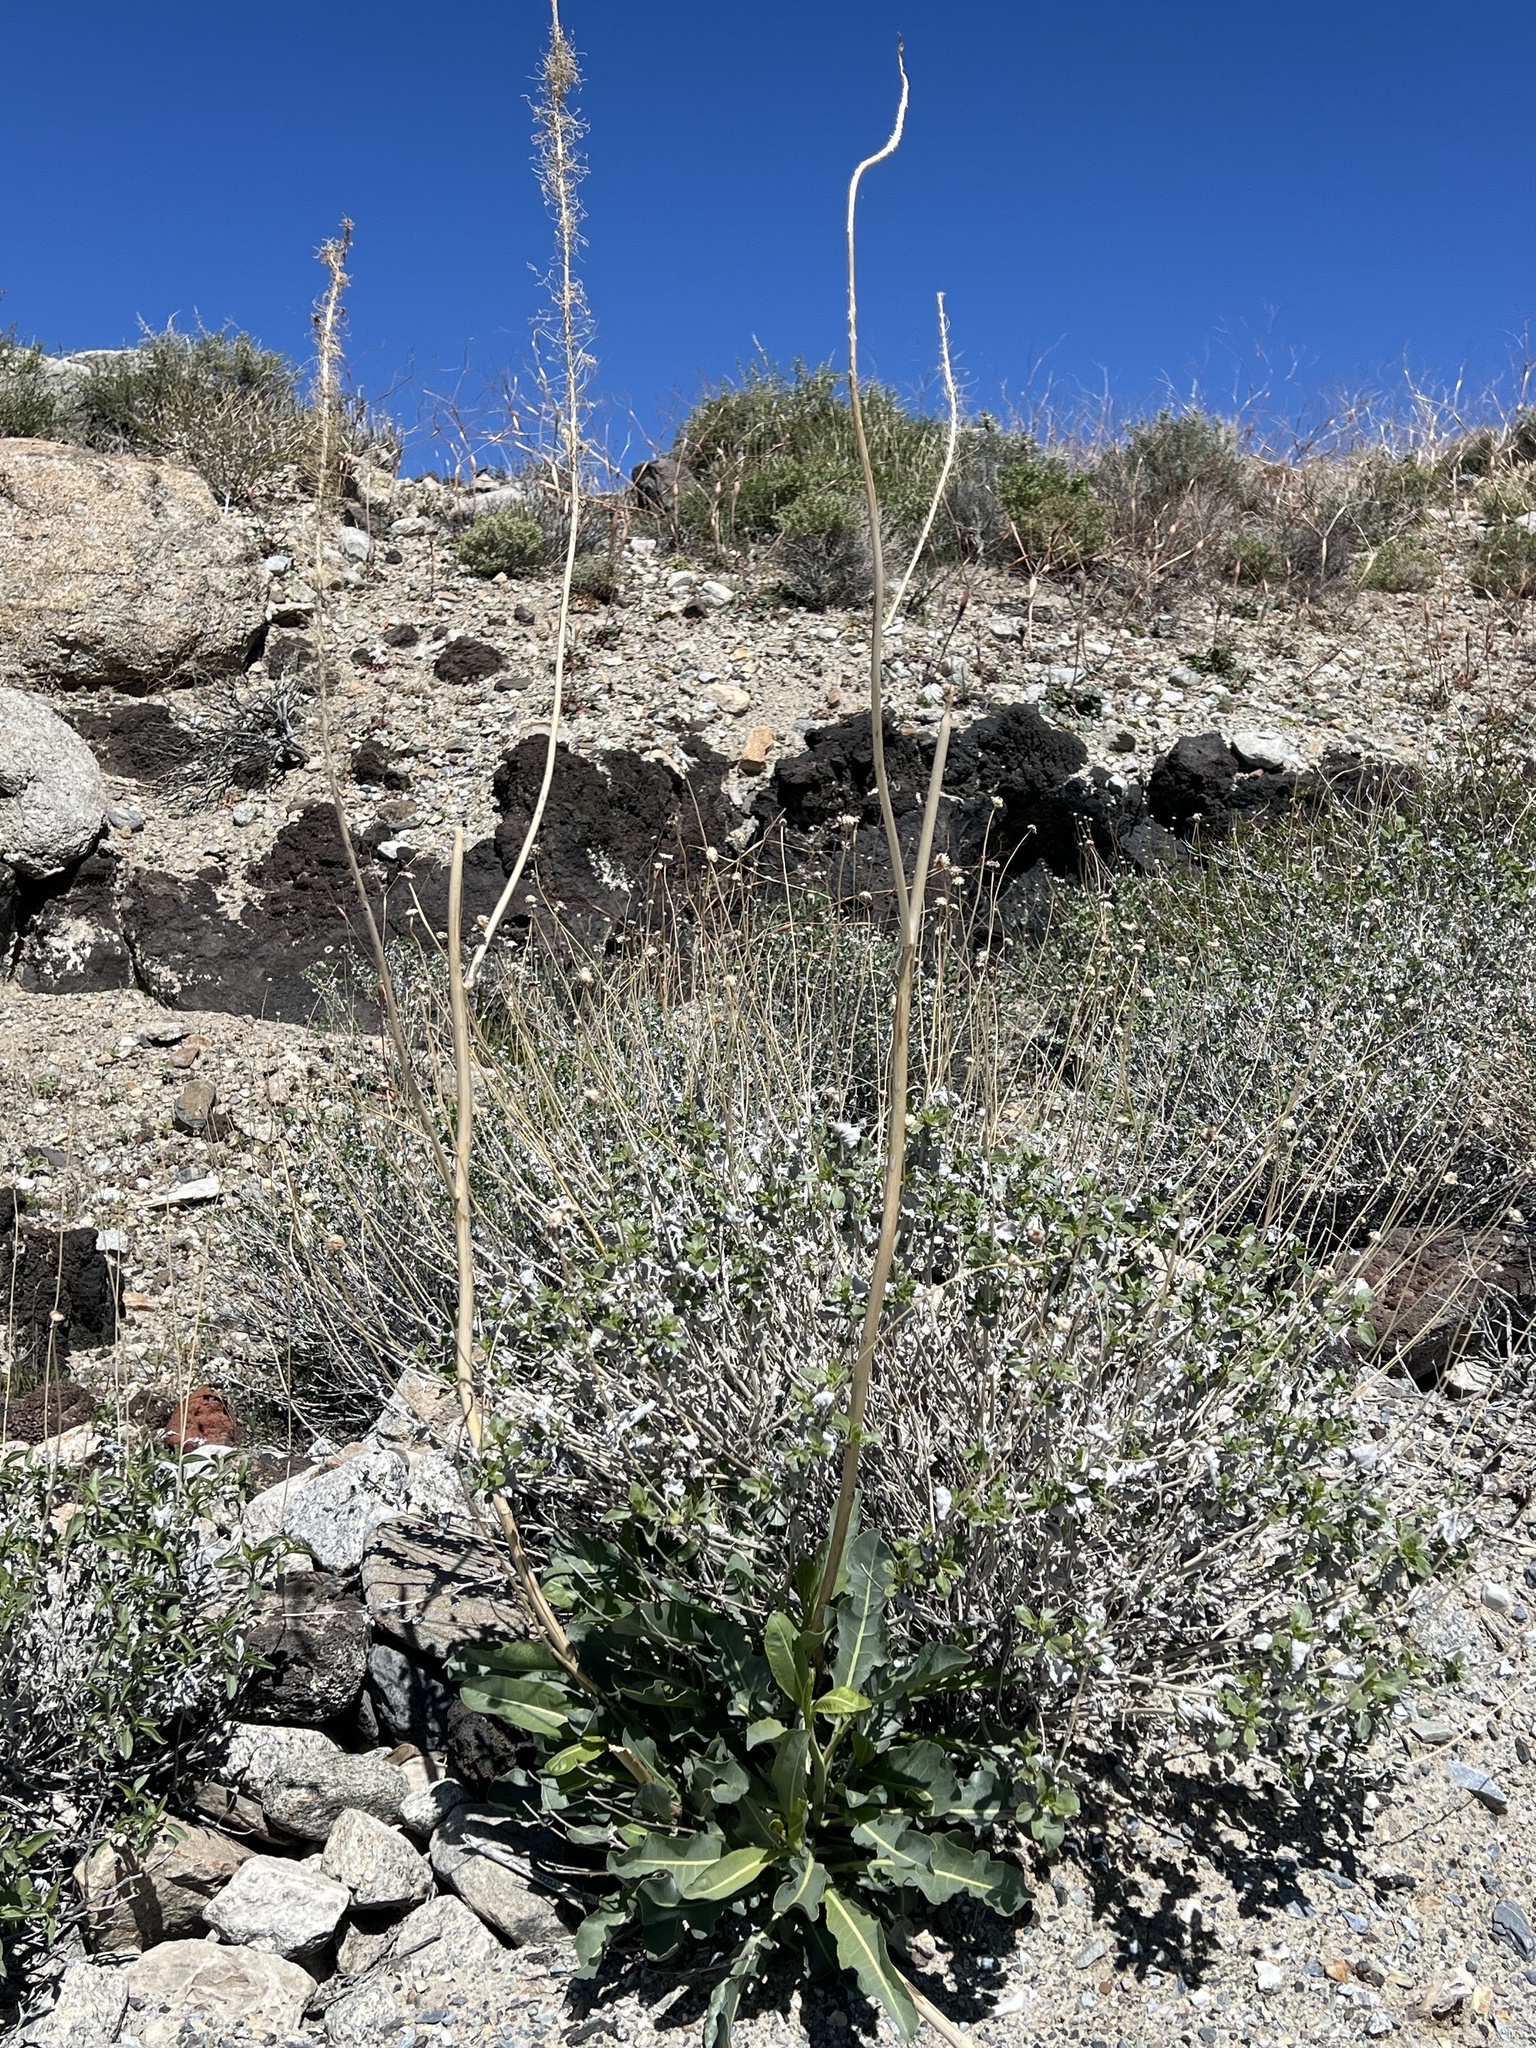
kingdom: Plantae
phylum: Tracheophyta
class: Magnoliopsida
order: Brassicales
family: Brassicaceae
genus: Stanleya
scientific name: Stanleya elata
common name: Panamint prince's plume
